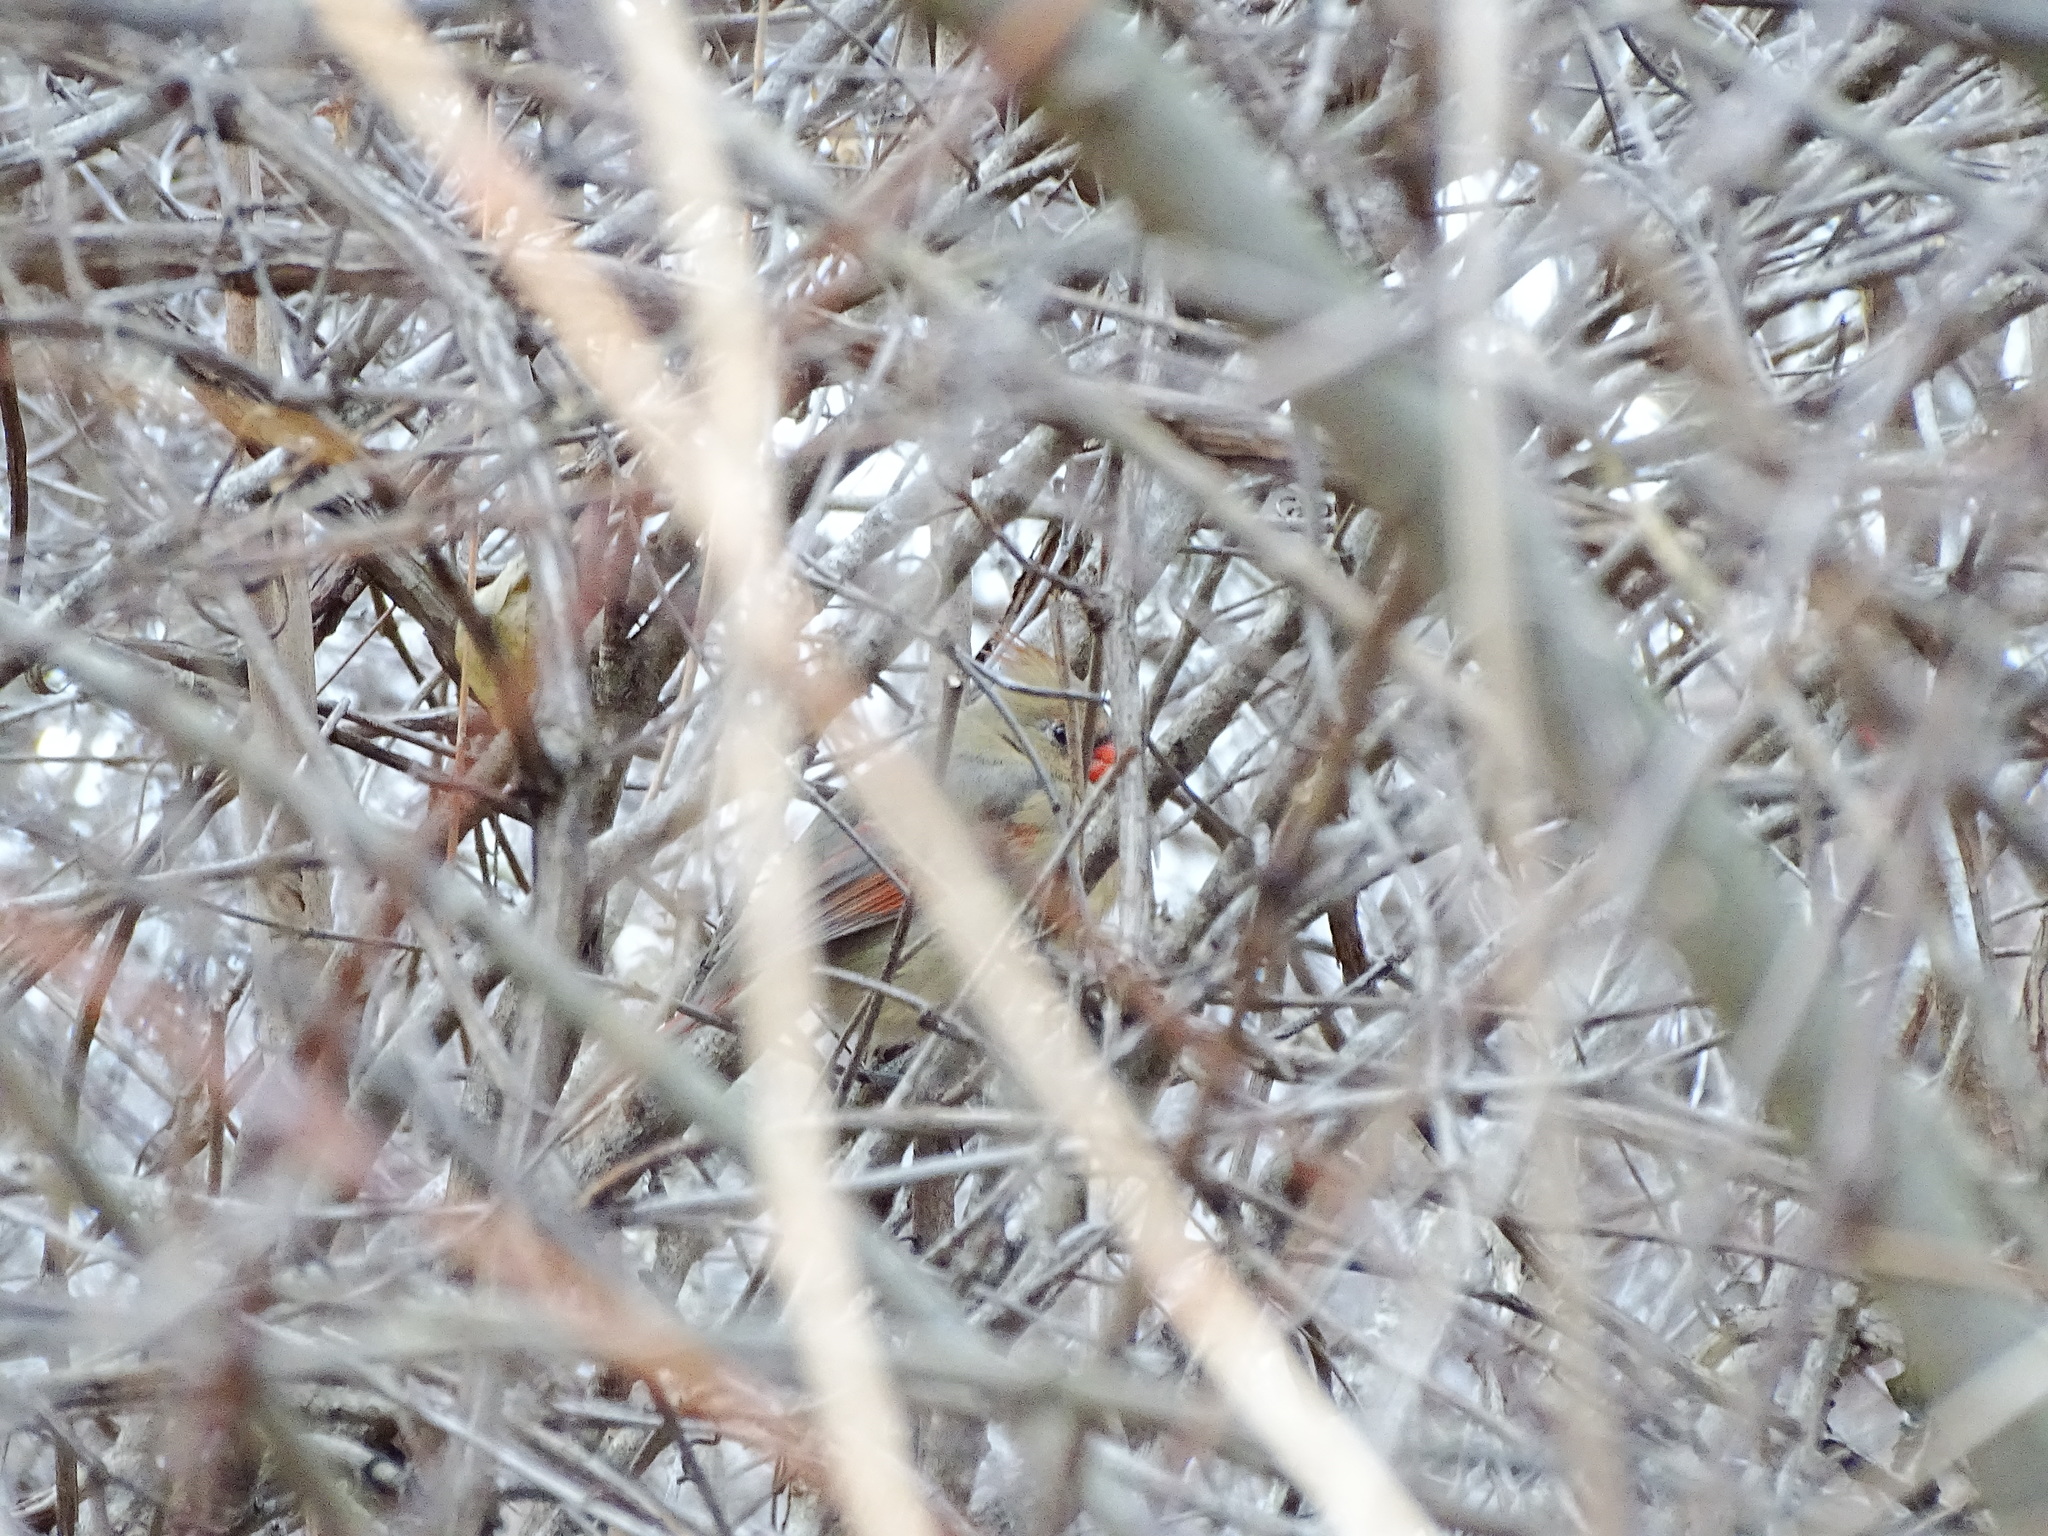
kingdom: Animalia
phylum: Chordata
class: Aves
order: Passeriformes
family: Cardinalidae
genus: Cardinalis
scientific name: Cardinalis cardinalis
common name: Northern cardinal
